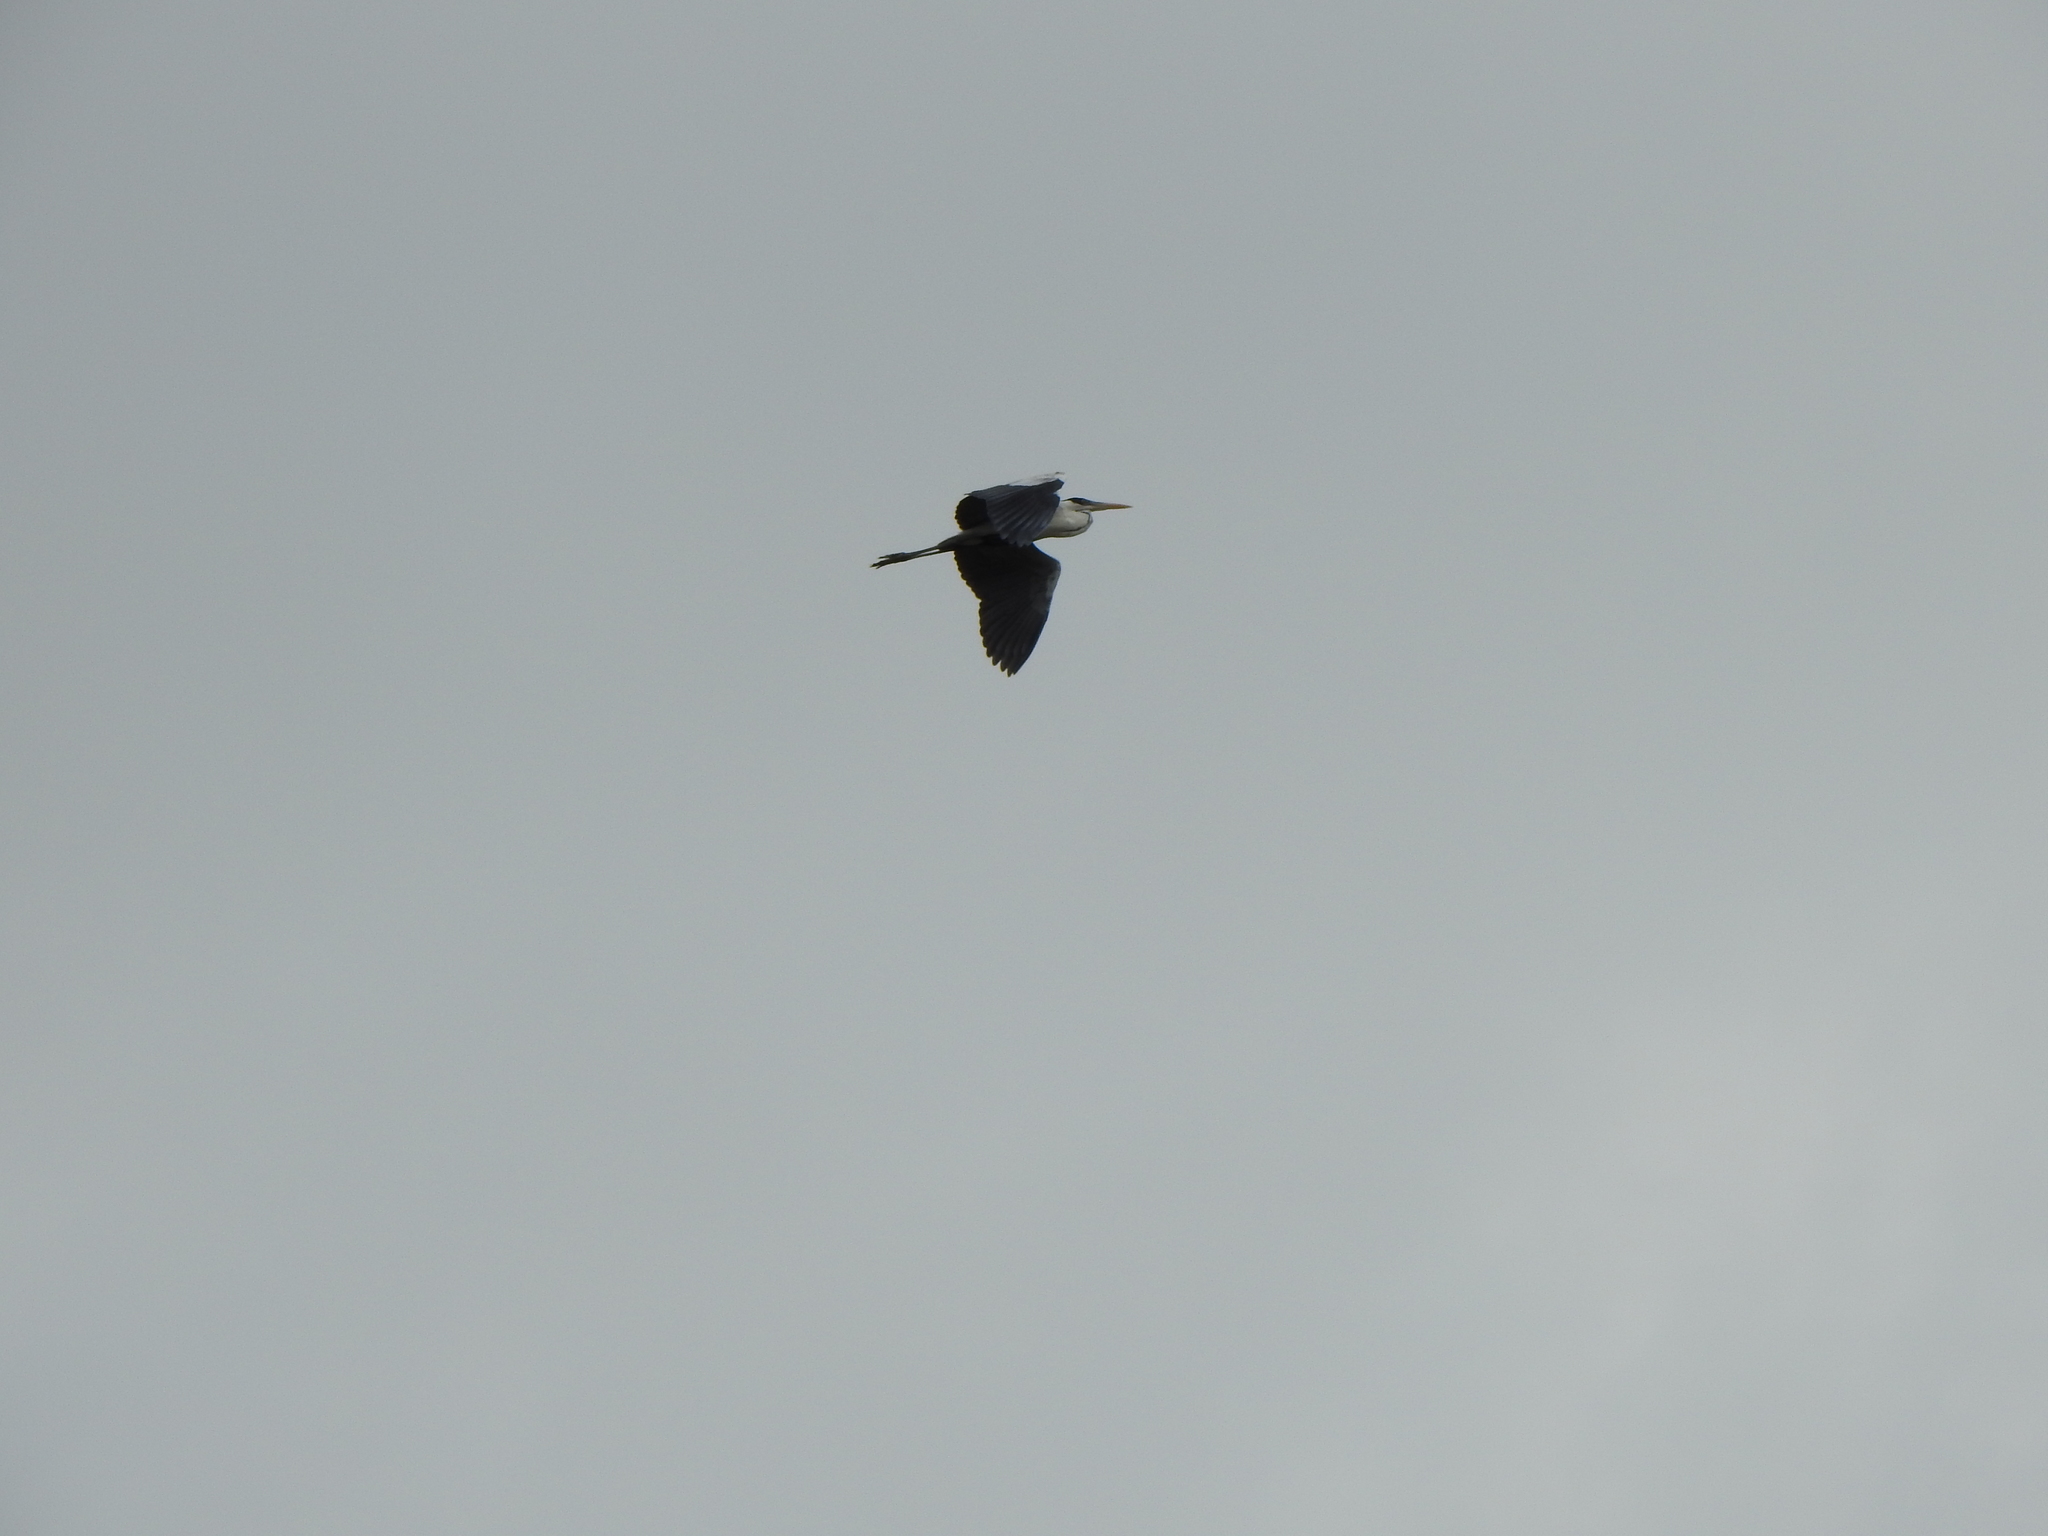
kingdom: Animalia
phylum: Chordata
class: Aves
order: Pelecaniformes
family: Ardeidae
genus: Ardea
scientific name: Ardea cocoi
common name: Cocoi heron
